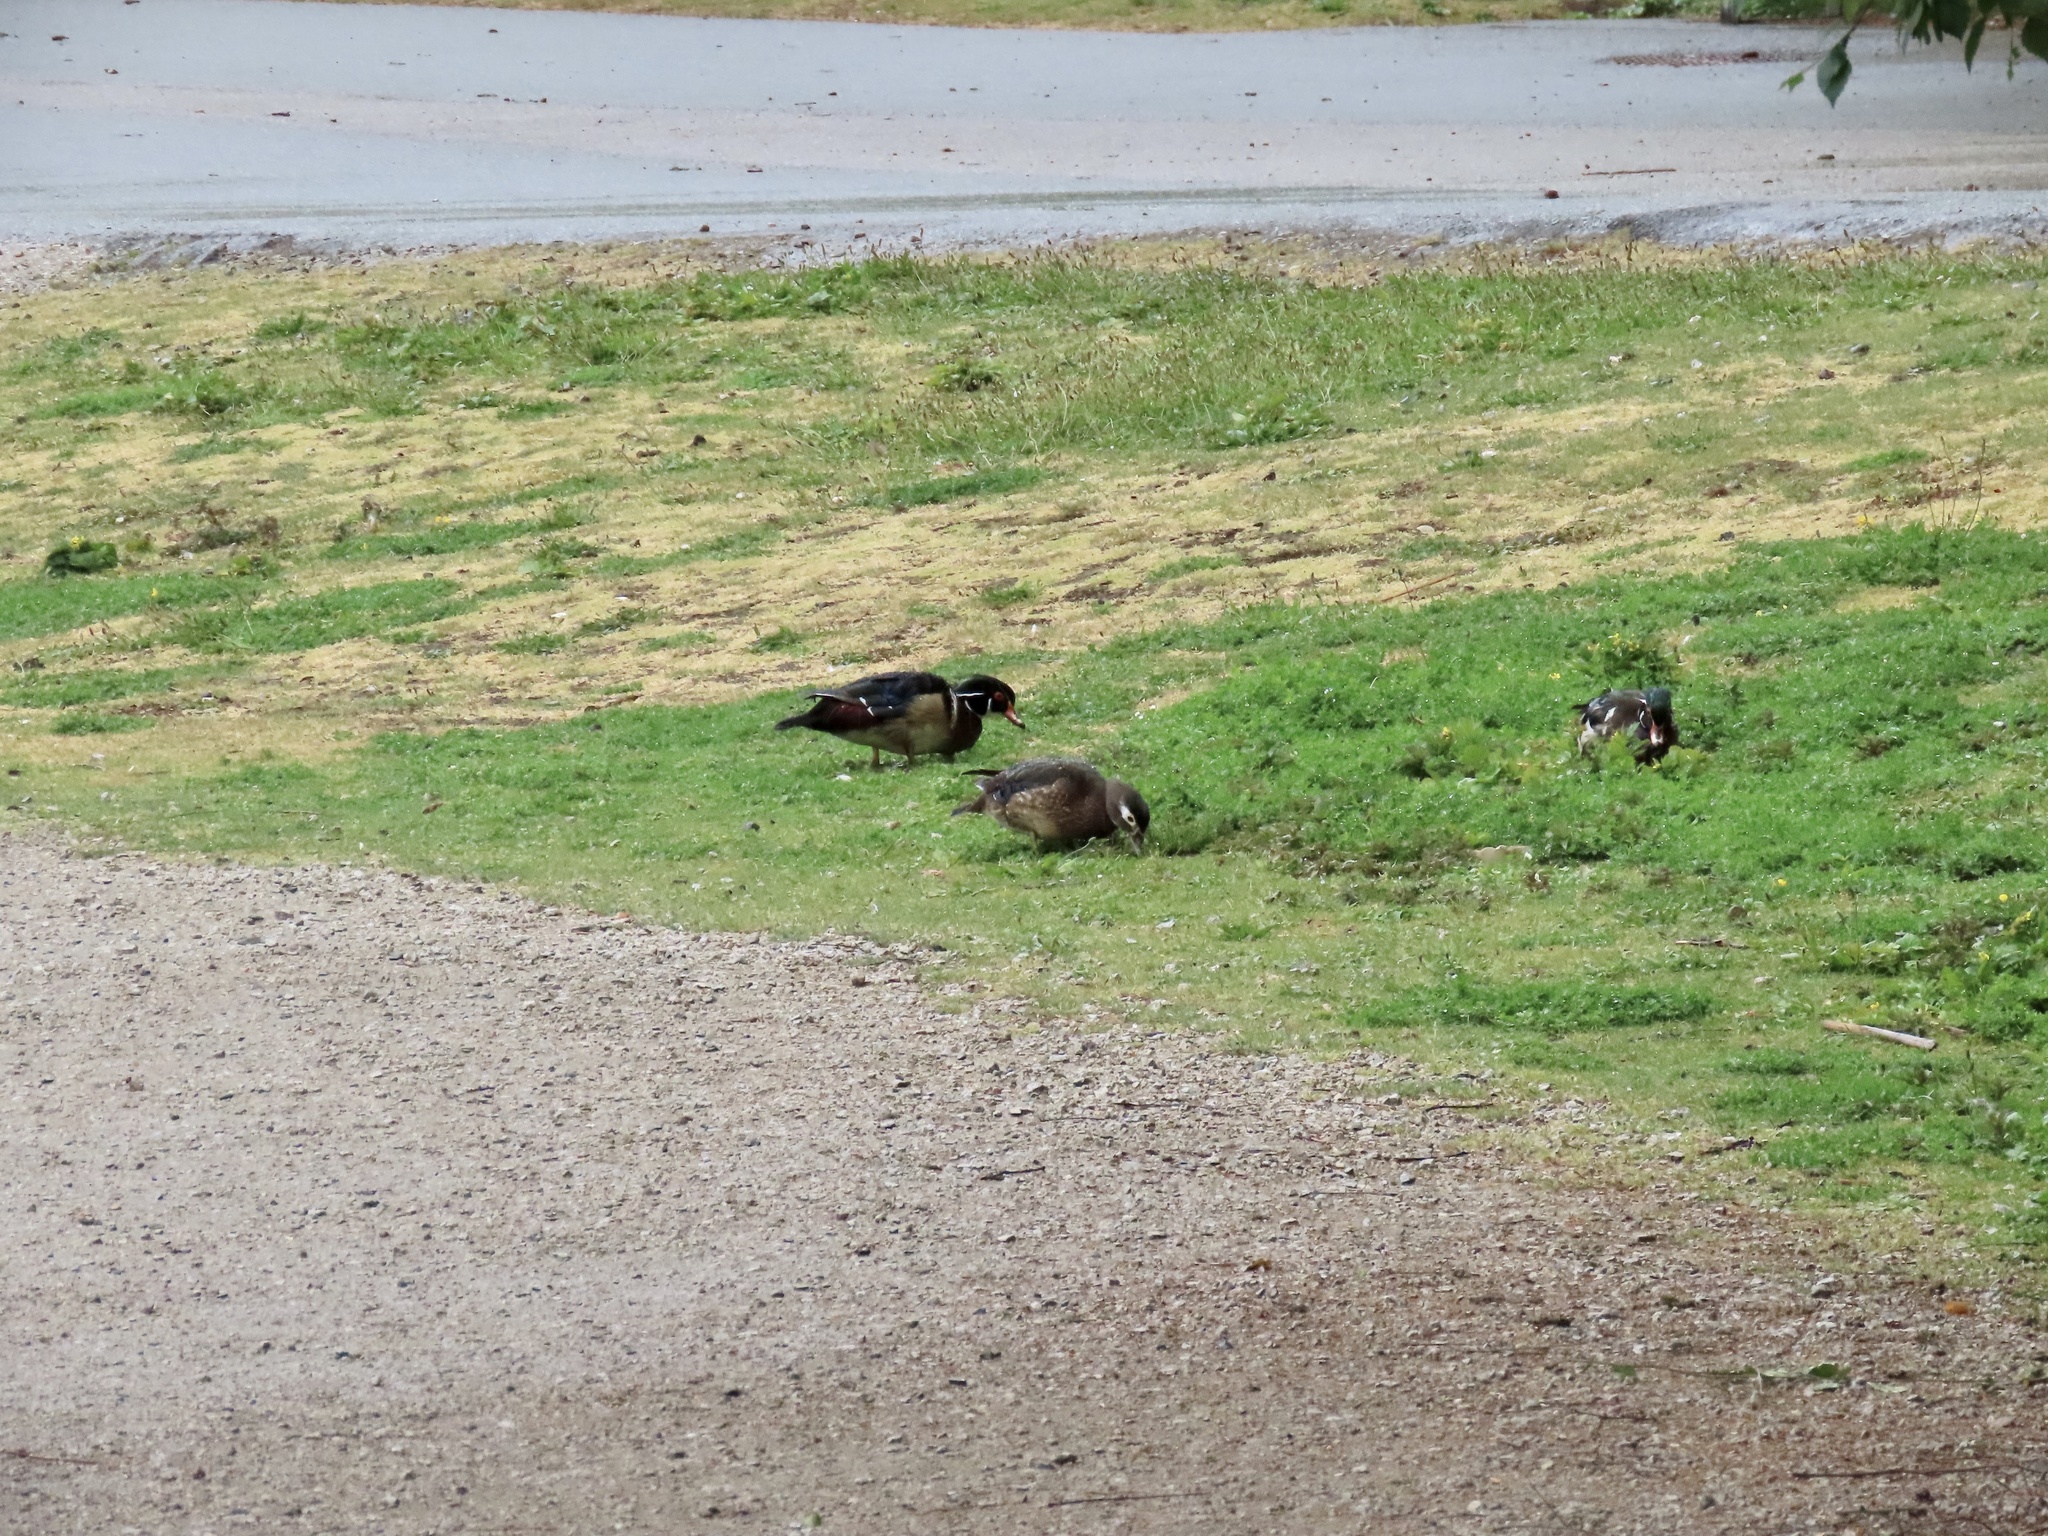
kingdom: Animalia
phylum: Chordata
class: Aves
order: Anseriformes
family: Anatidae
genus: Aix
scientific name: Aix sponsa
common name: Wood duck
